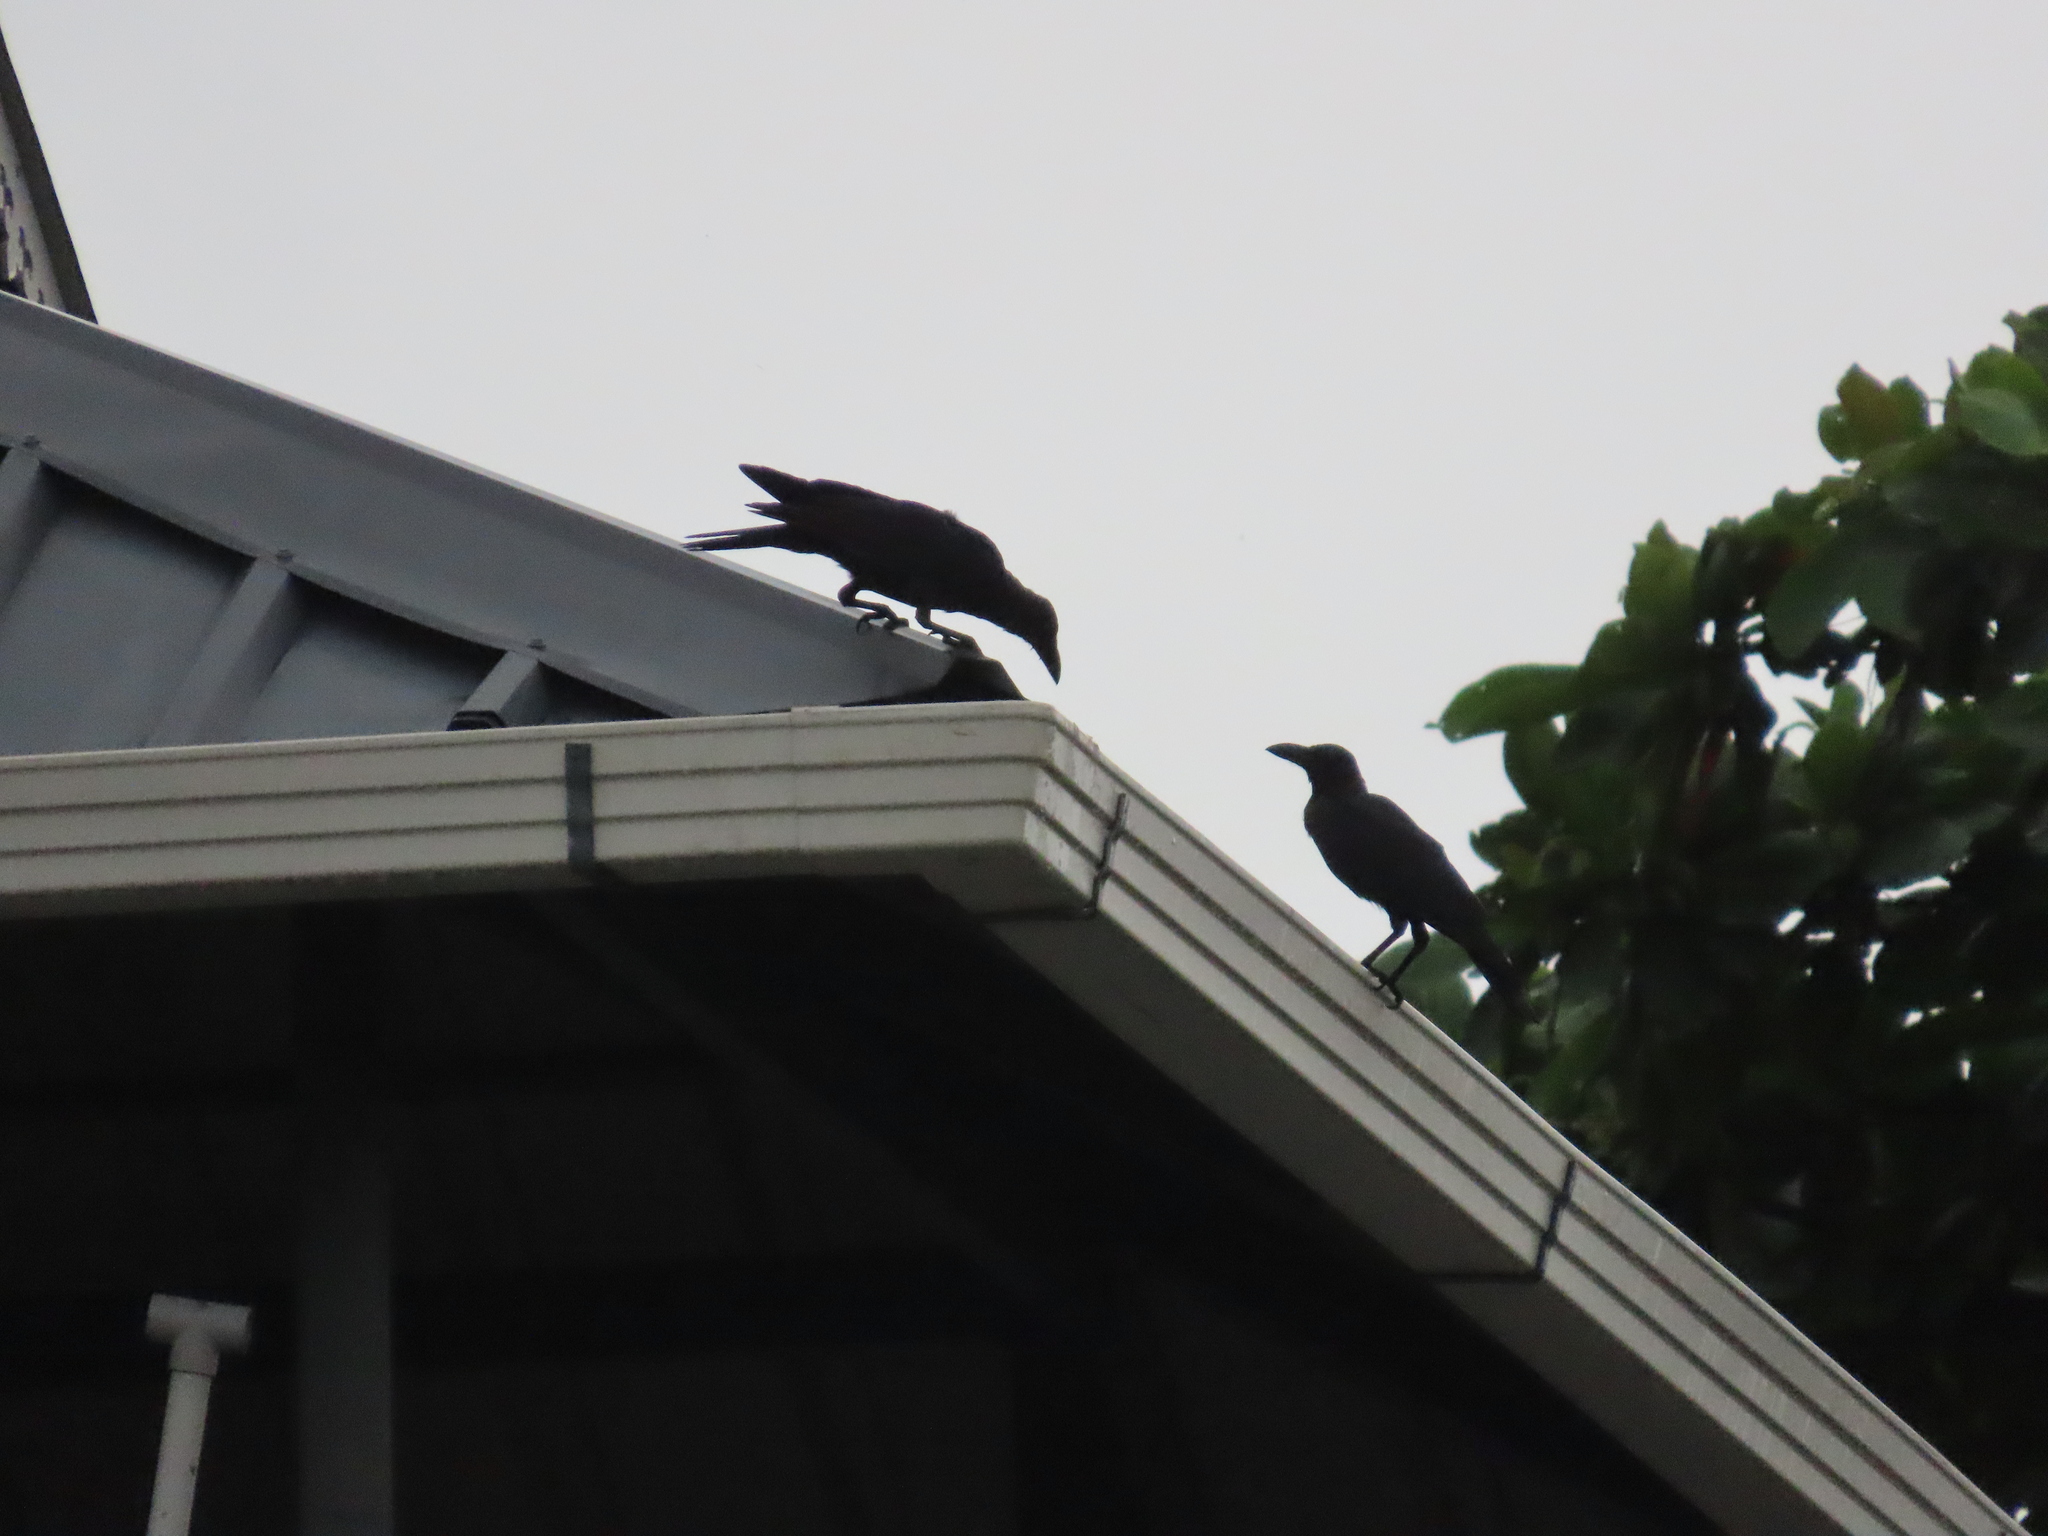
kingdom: Animalia
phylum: Chordata
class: Aves
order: Passeriformes
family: Corvidae
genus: Corvus
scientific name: Corvus splendens
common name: House crow
